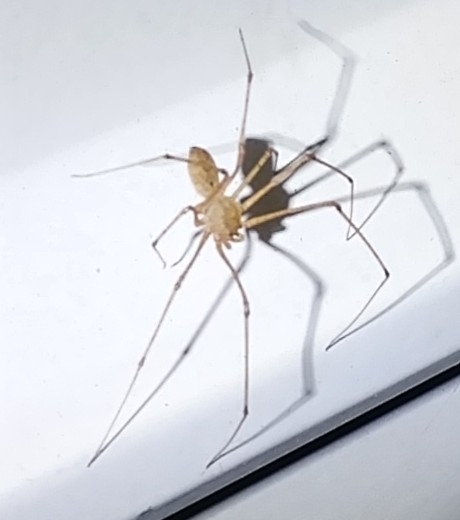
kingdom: Animalia
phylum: Arthropoda
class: Arachnida
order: Araneae
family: Scytodidae
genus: Scytodes
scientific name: Scytodes atlacoya
